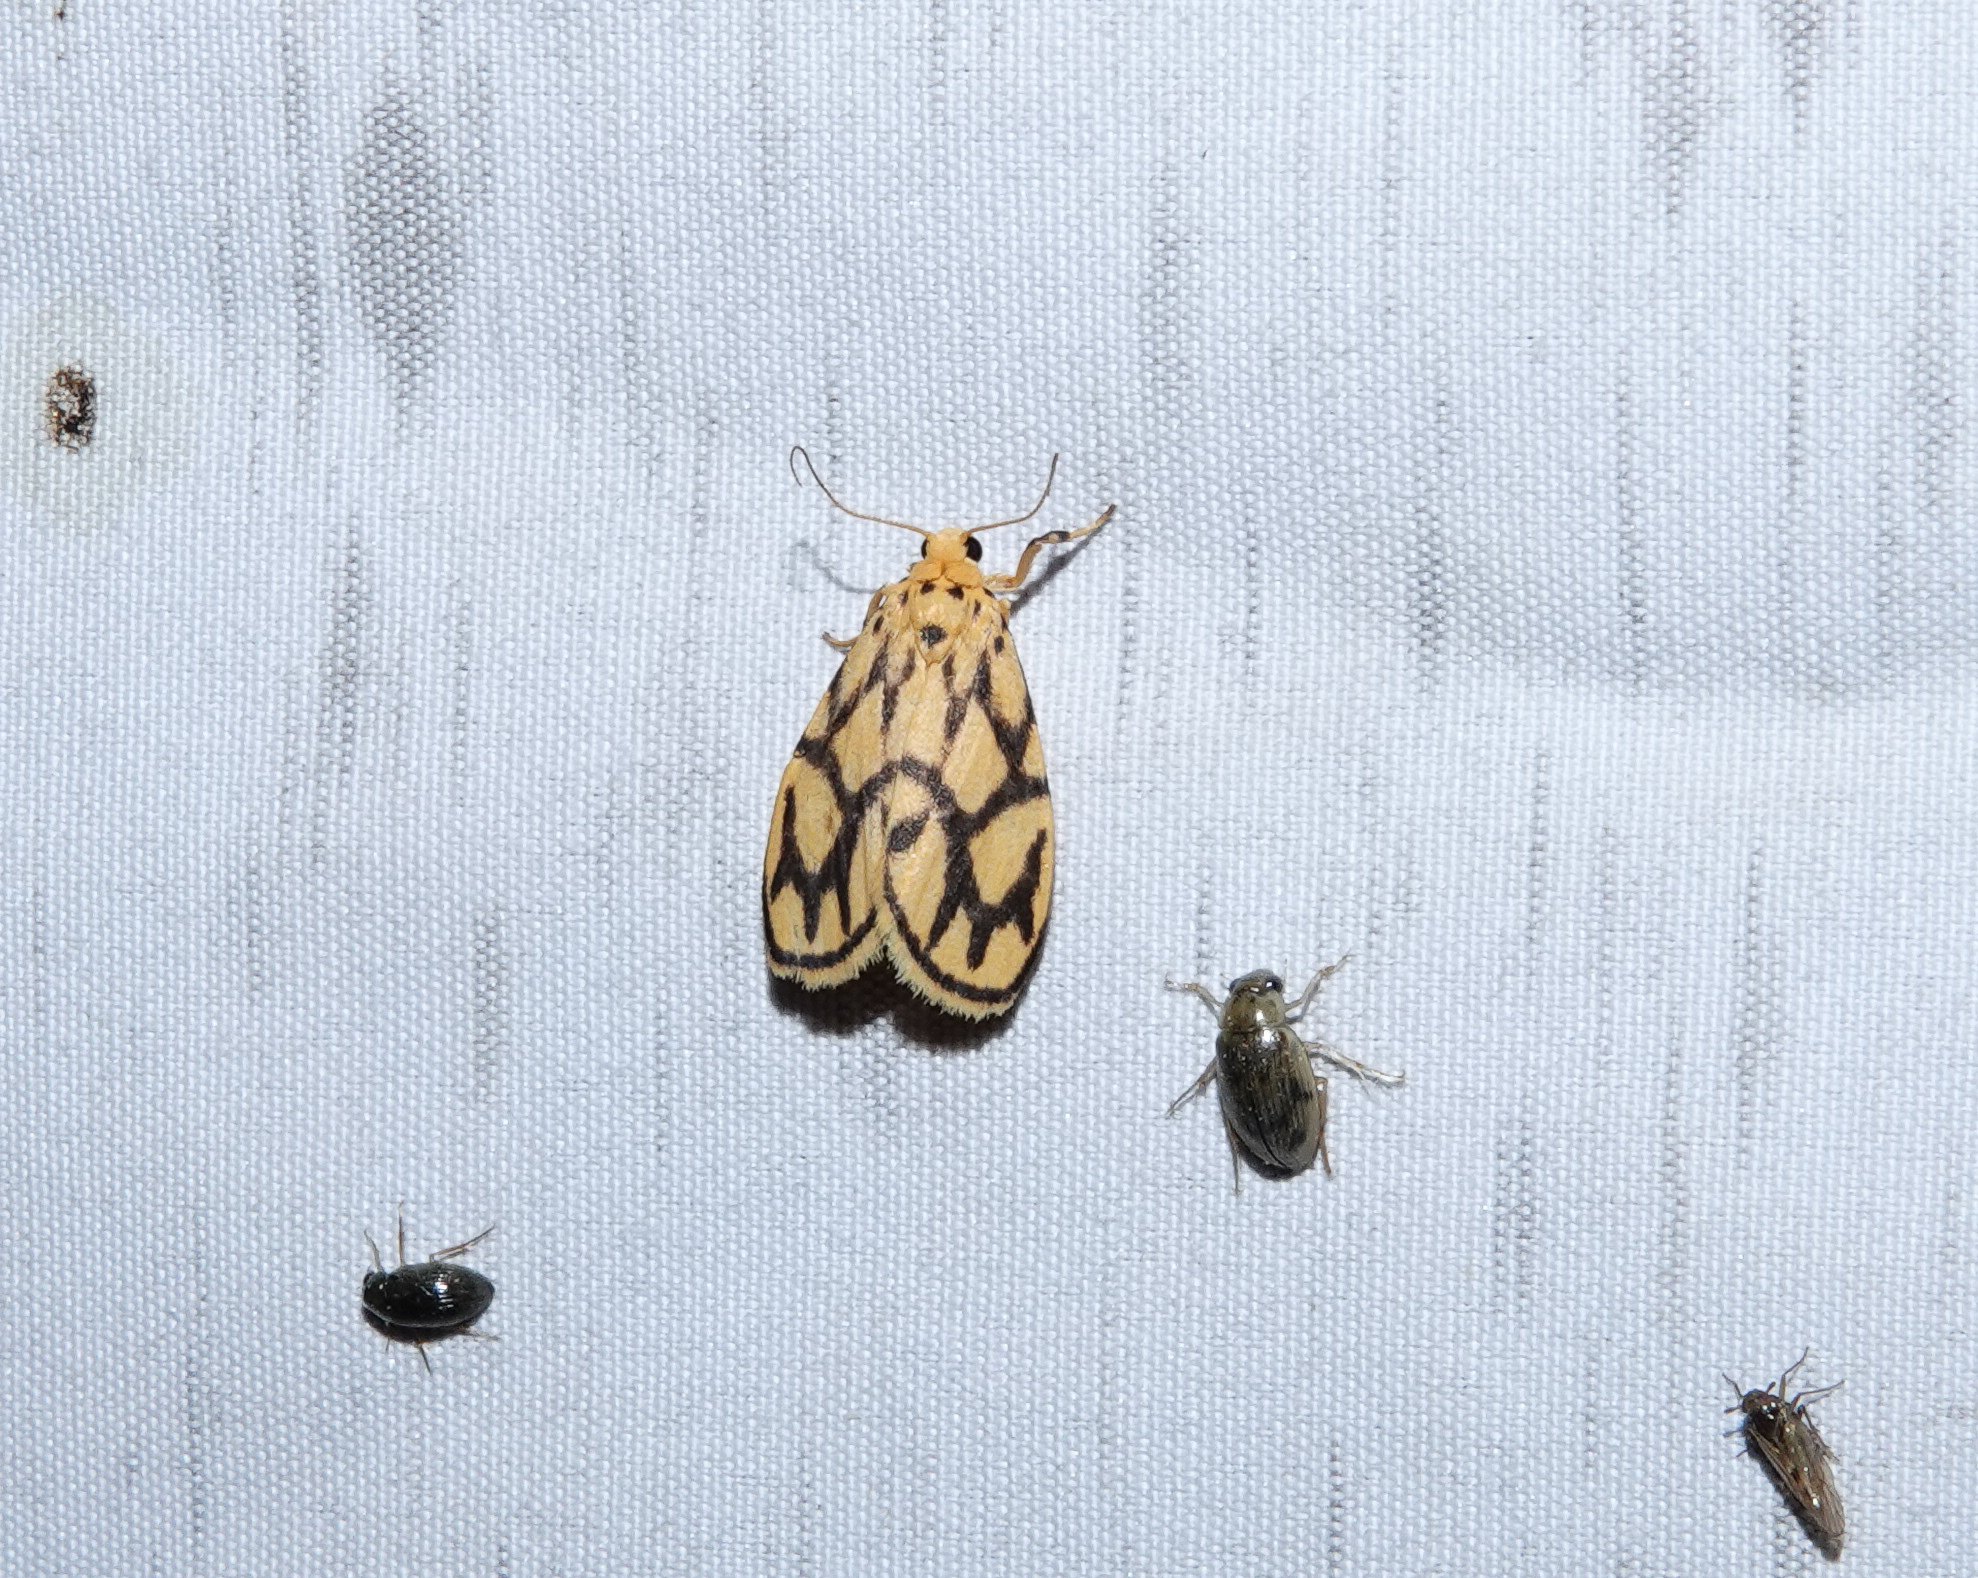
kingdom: Animalia
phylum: Arthropoda
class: Insecta
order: Lepidoptera
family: Erebidae
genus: Miltochrista
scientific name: Miltochrista conjunctana
